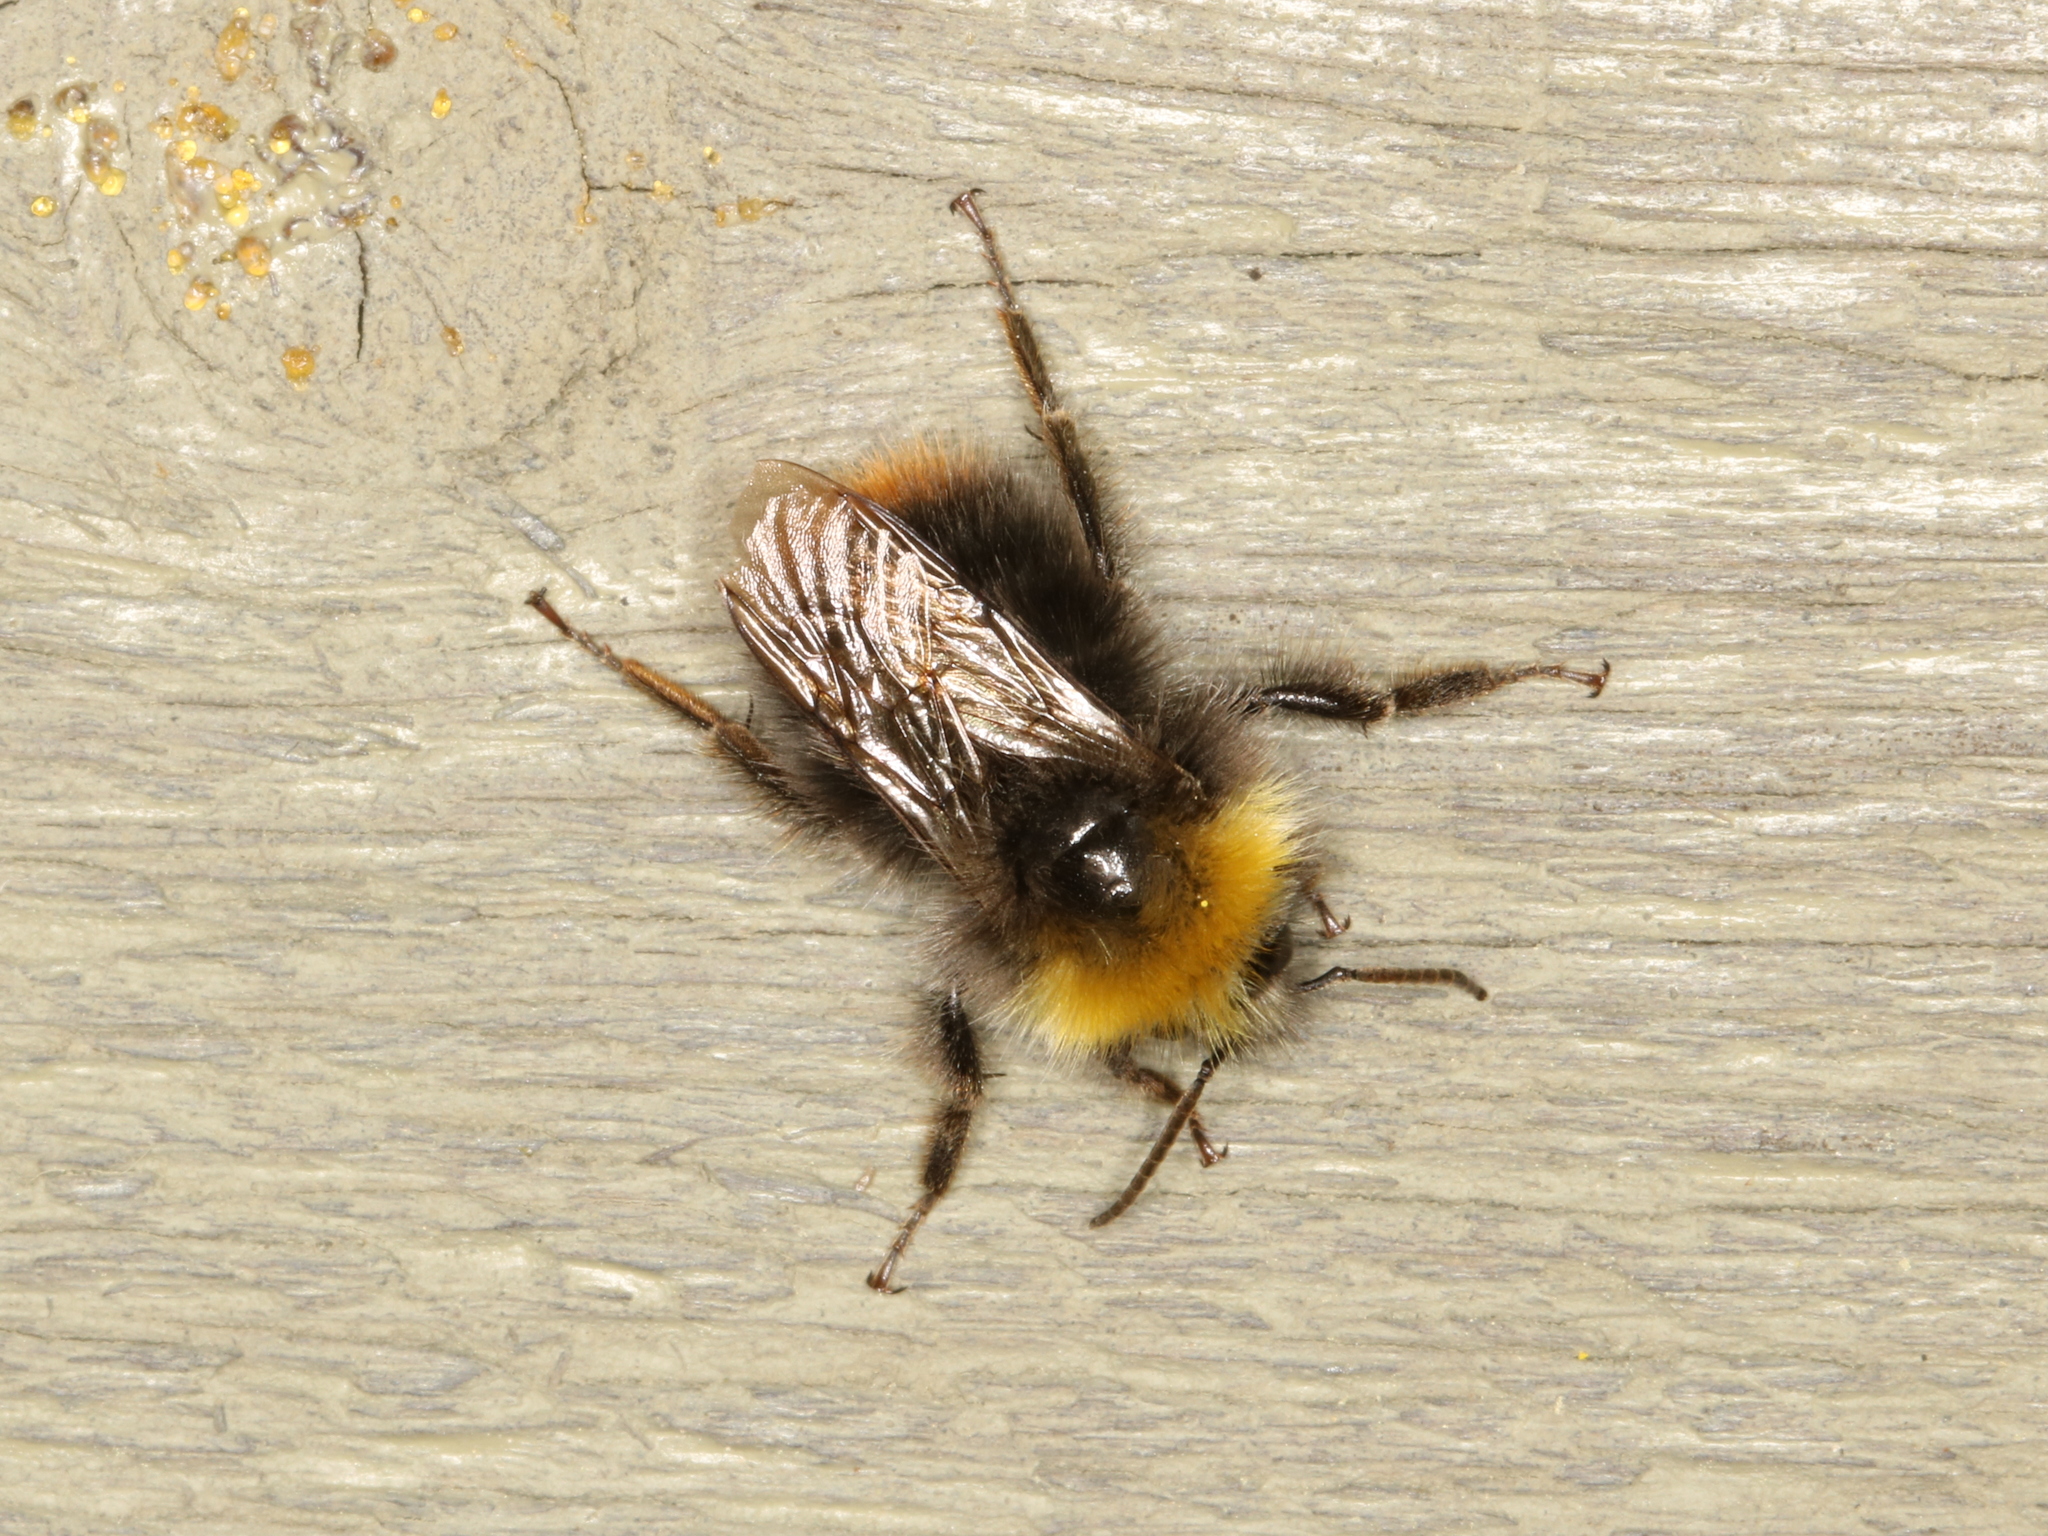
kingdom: Animalia
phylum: Arthropoda
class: Insecta
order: Hymenoptera
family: Apidae
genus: Bombus
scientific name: Bombus pratorum
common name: Early humble-bee
